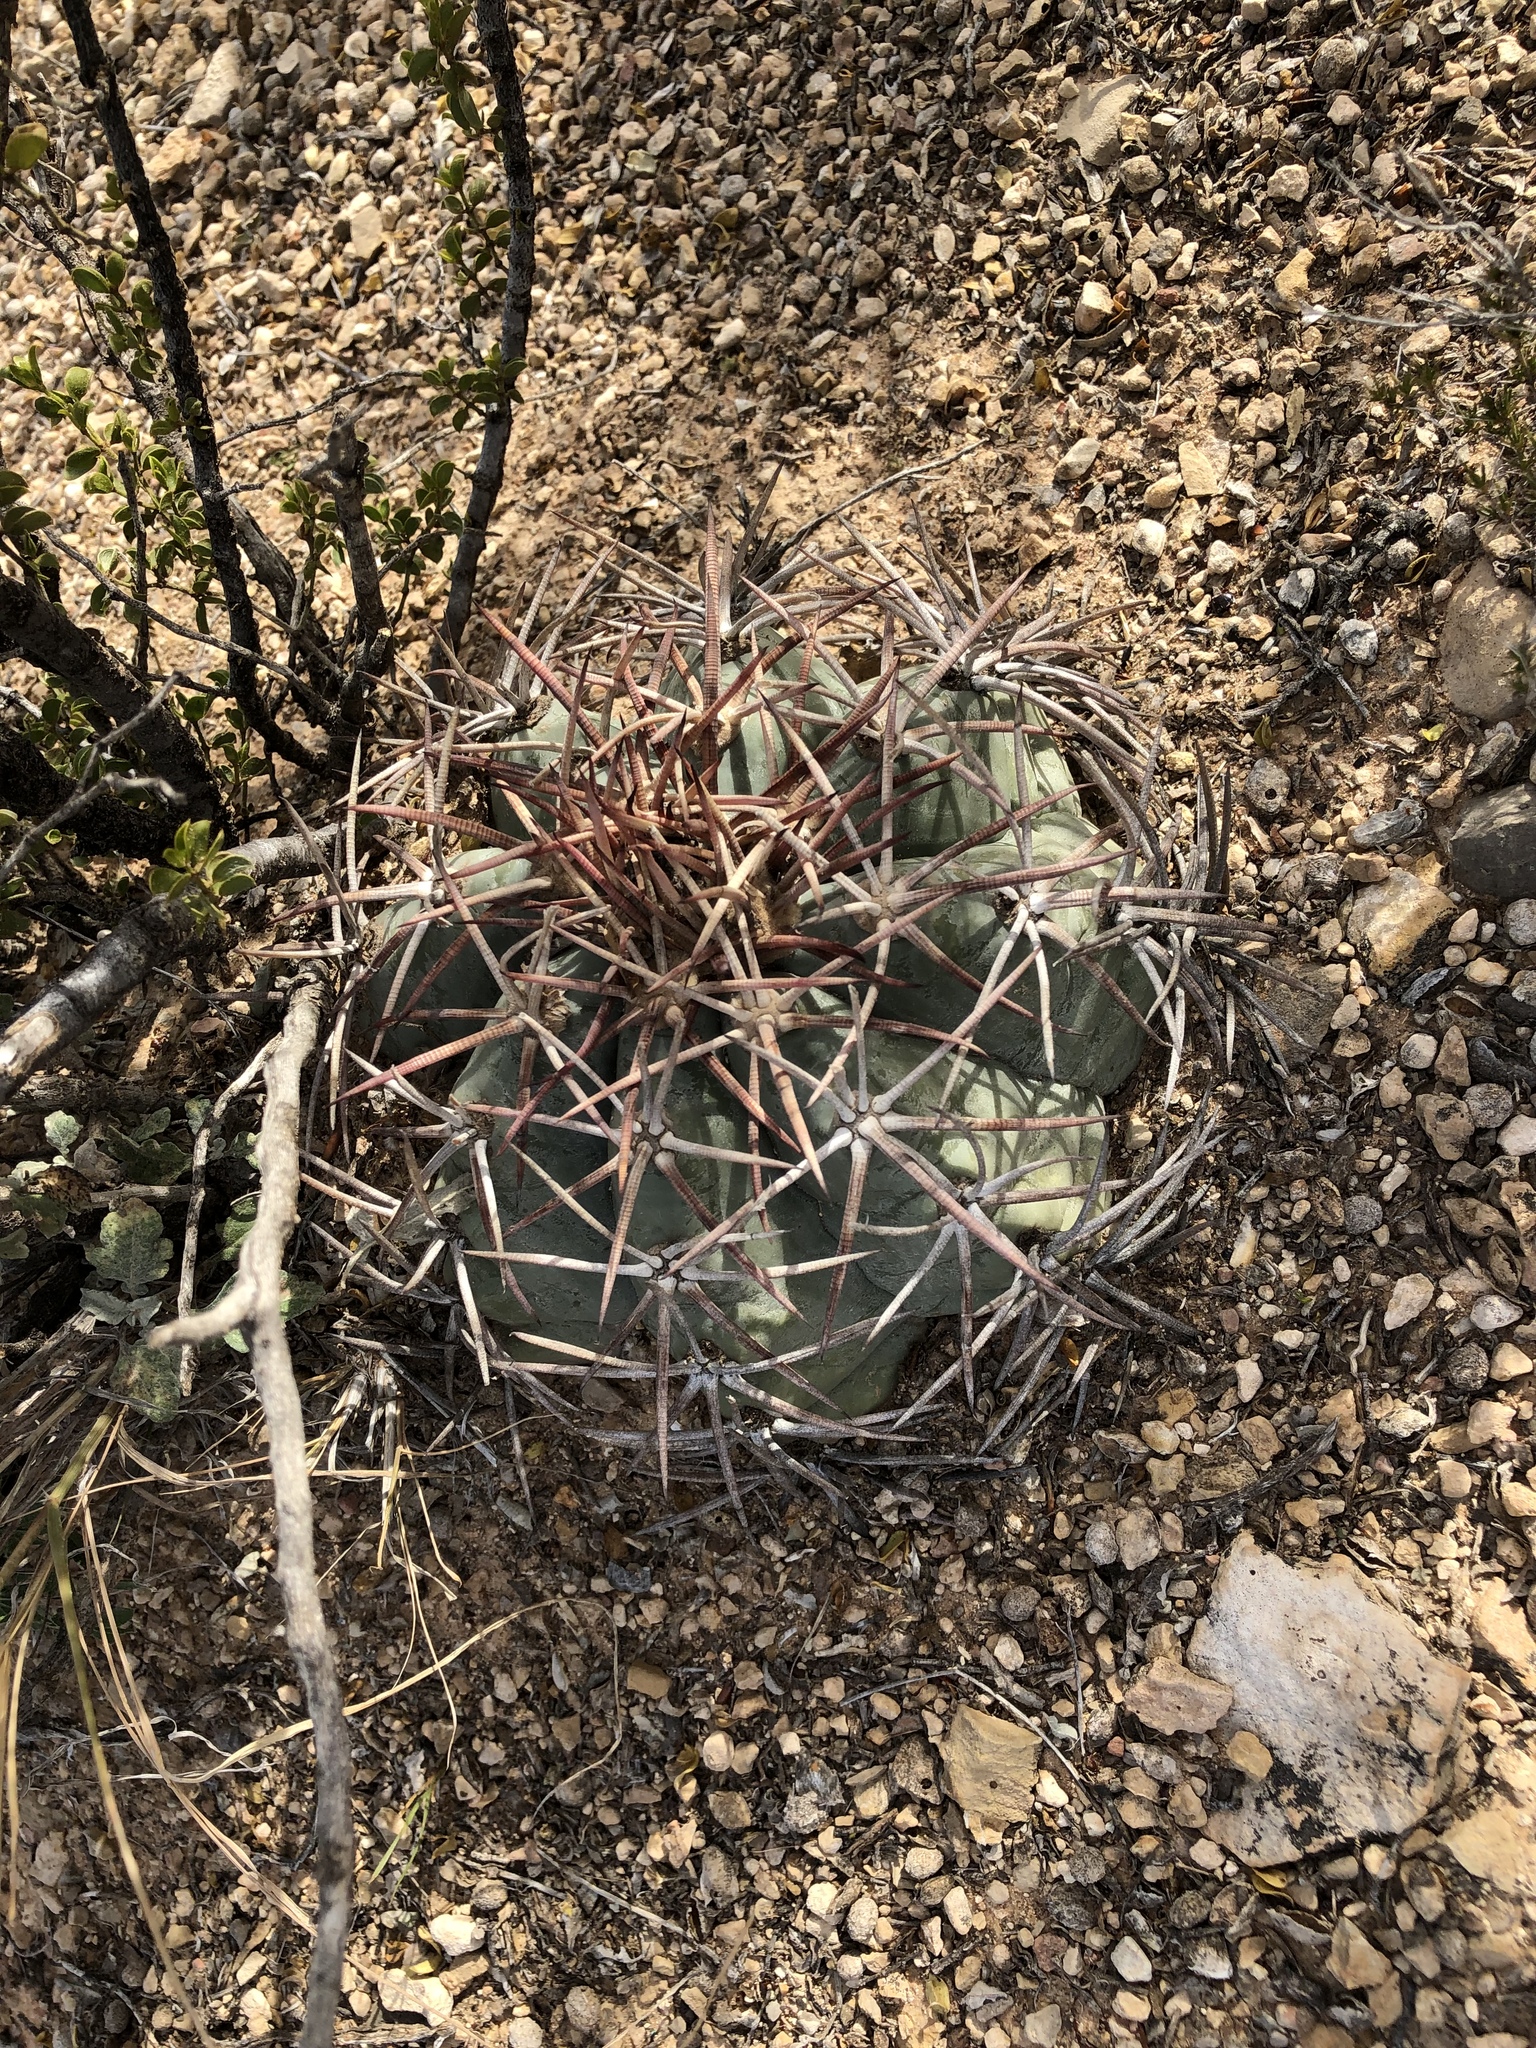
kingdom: Plantae
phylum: Tracheophyta
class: Magnoliopsida
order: Caryophyllales
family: Cactaceae
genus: Echinocactus
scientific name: Echinocactus horizonthalonius
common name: Devilshead
